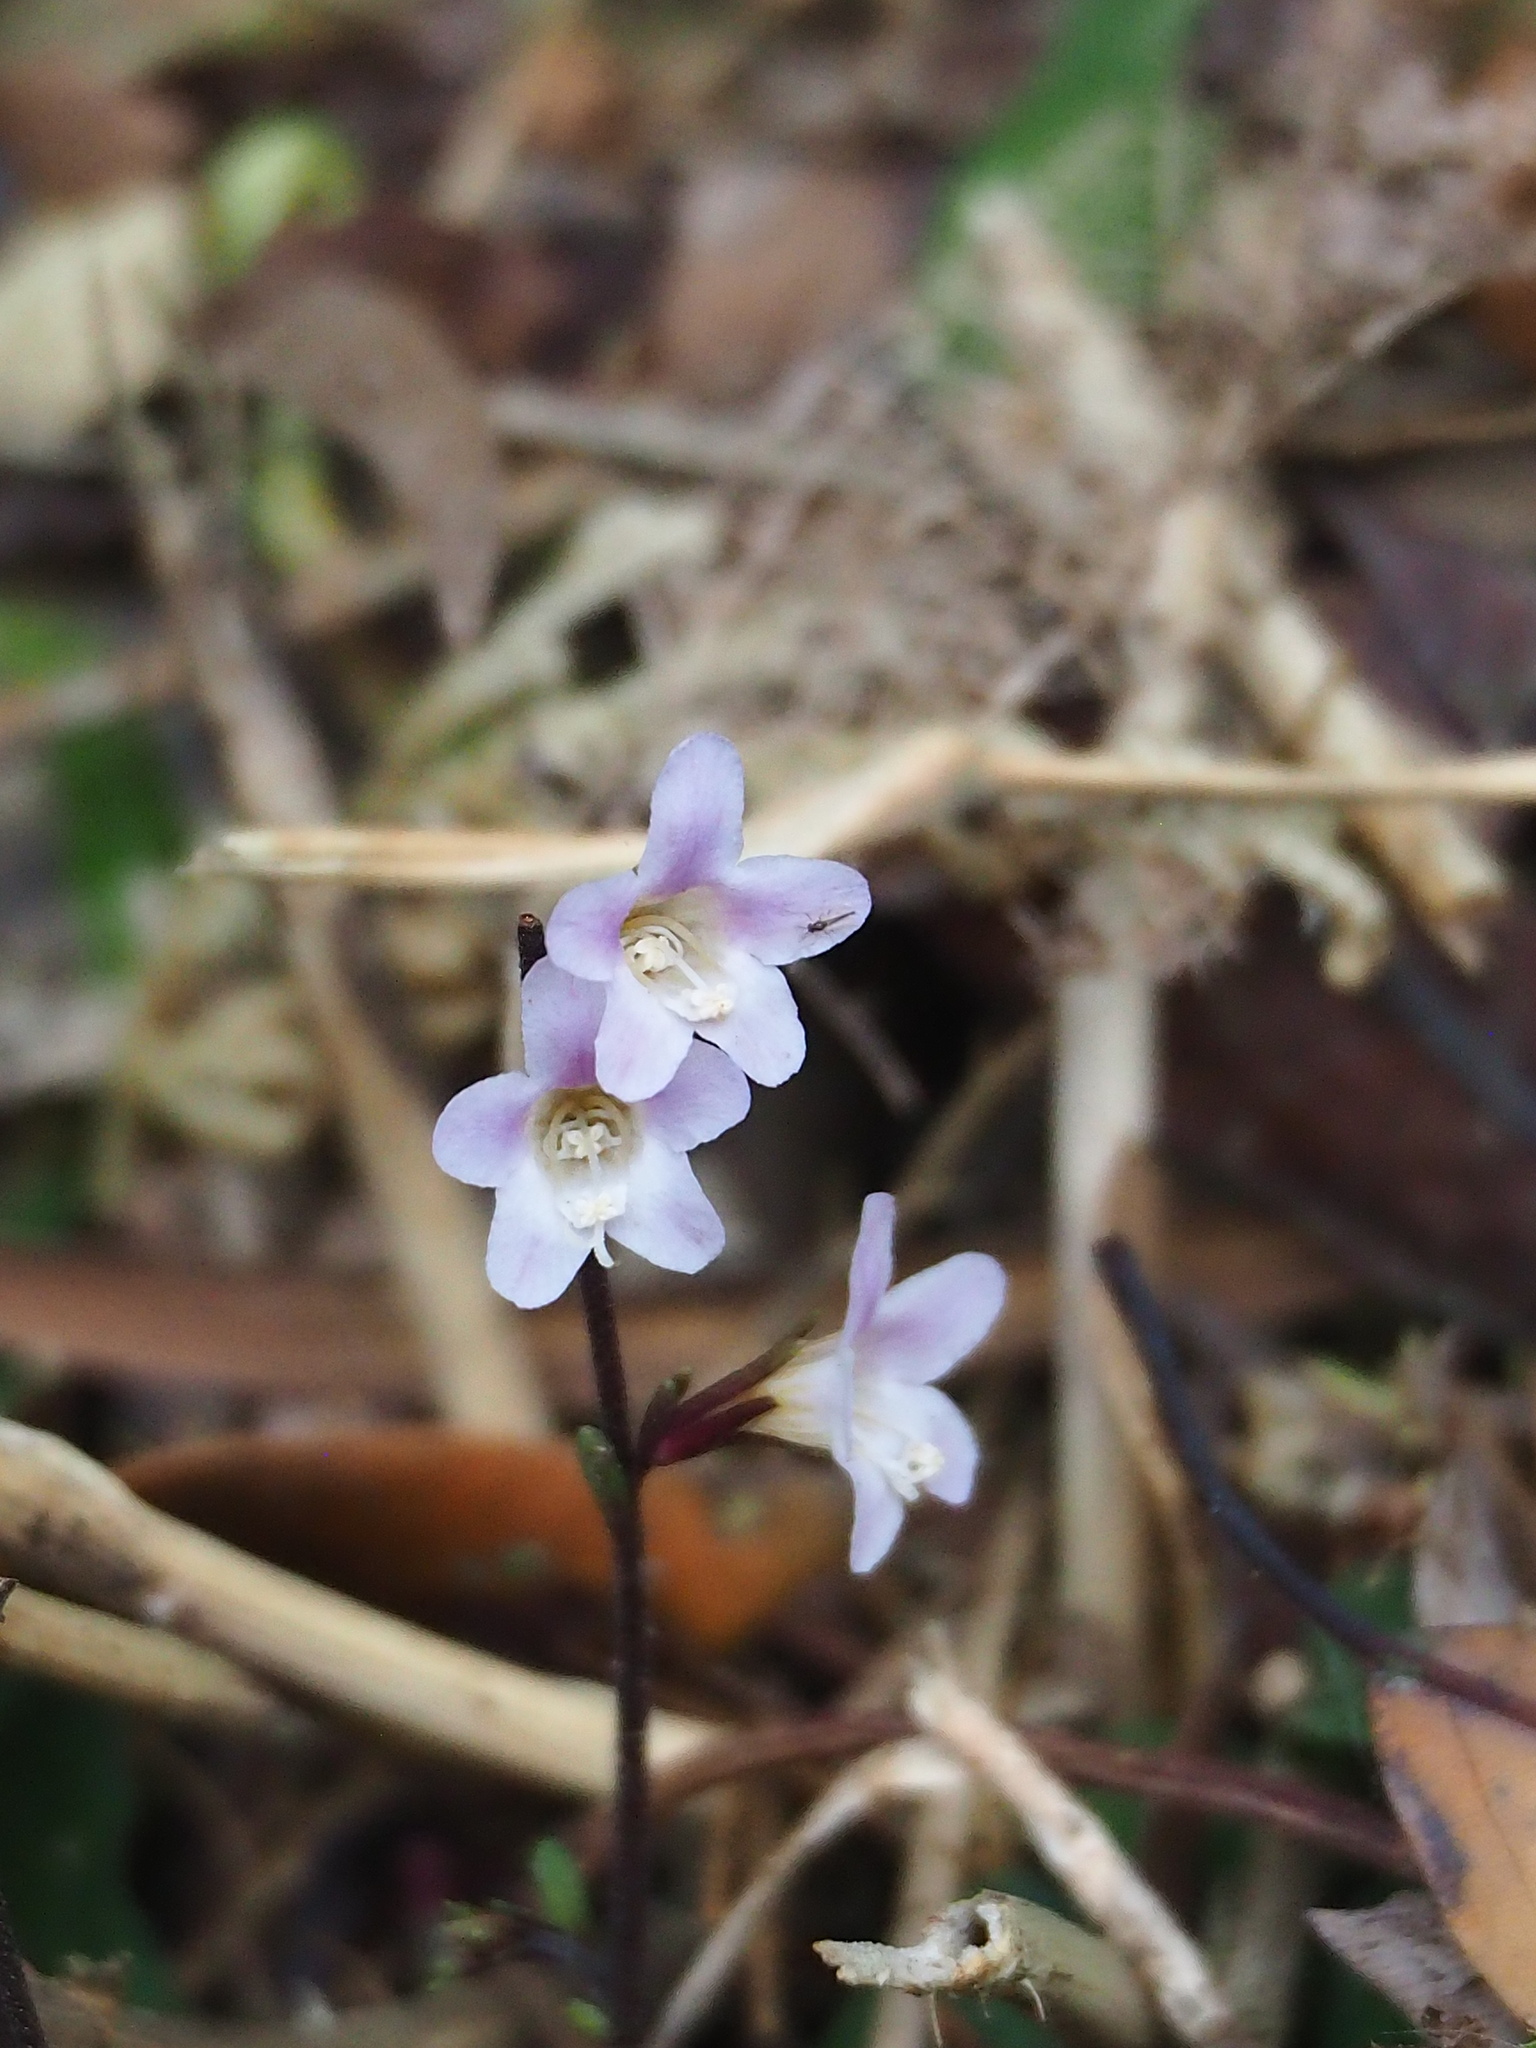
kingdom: Plantae
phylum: Tracheophyta
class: Magnoliopsida
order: Lamiales
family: Acanthaceae
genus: Staurogyne
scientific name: Staurogyne concinnula
